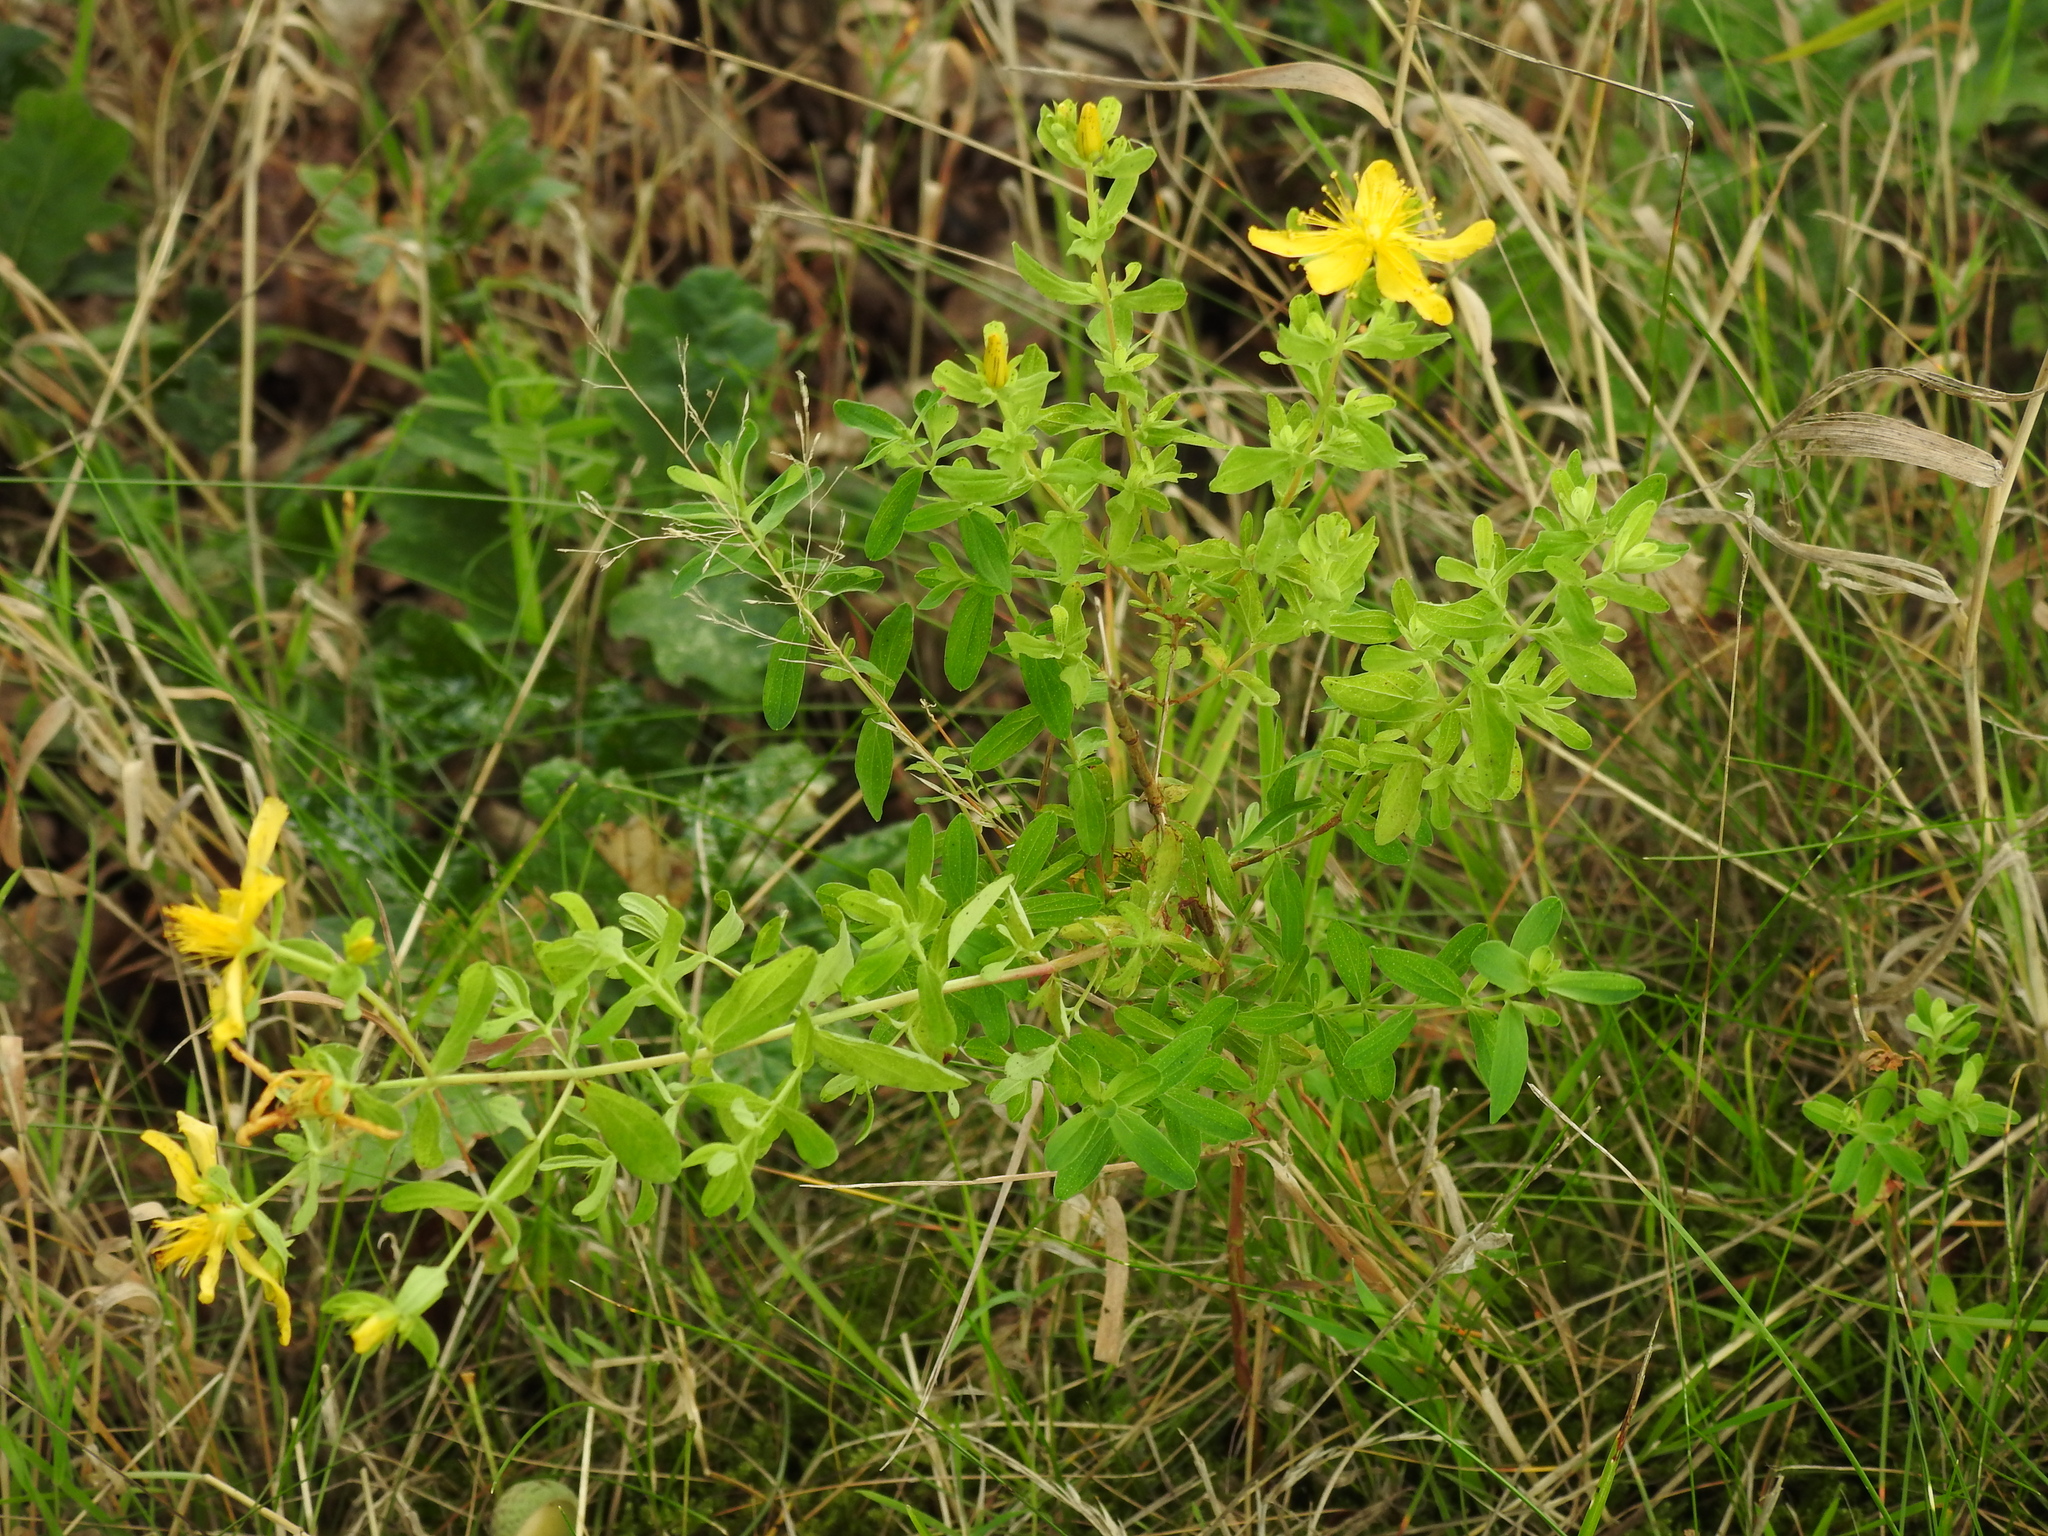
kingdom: Plantae
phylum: Tracheophyta
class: Magnoliopsida
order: Malpighiales
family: Hypericaceae
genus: Hypericum
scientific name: Hypericum perforatum
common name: Common st. johnswort
